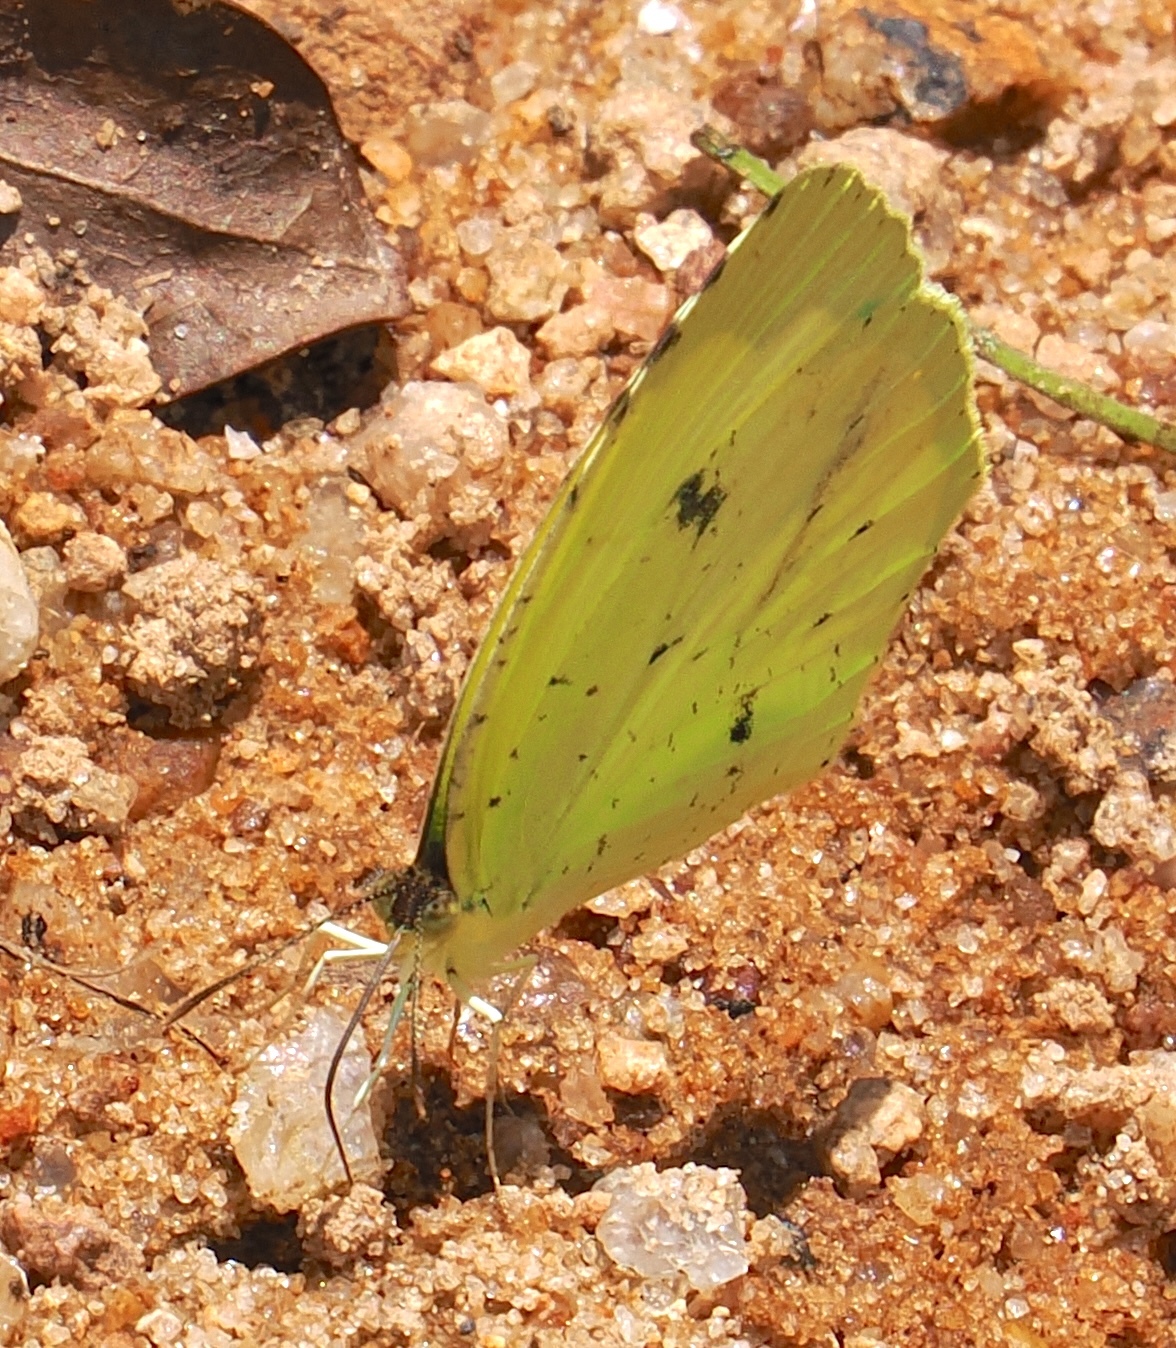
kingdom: Animalia
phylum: Arthropoda
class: Insecta
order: Lepidoptera
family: Pieridae
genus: Teriocolias
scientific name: Teriocolias
